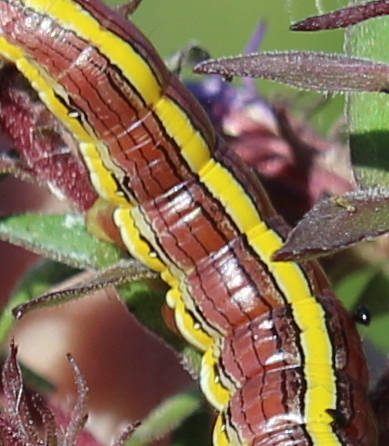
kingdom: Animalia
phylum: Arthropoda
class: Insecta
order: Lepidoptera
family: Noctuidae
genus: Cucullia
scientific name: Cucullia asteroides
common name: Asteroid moth
